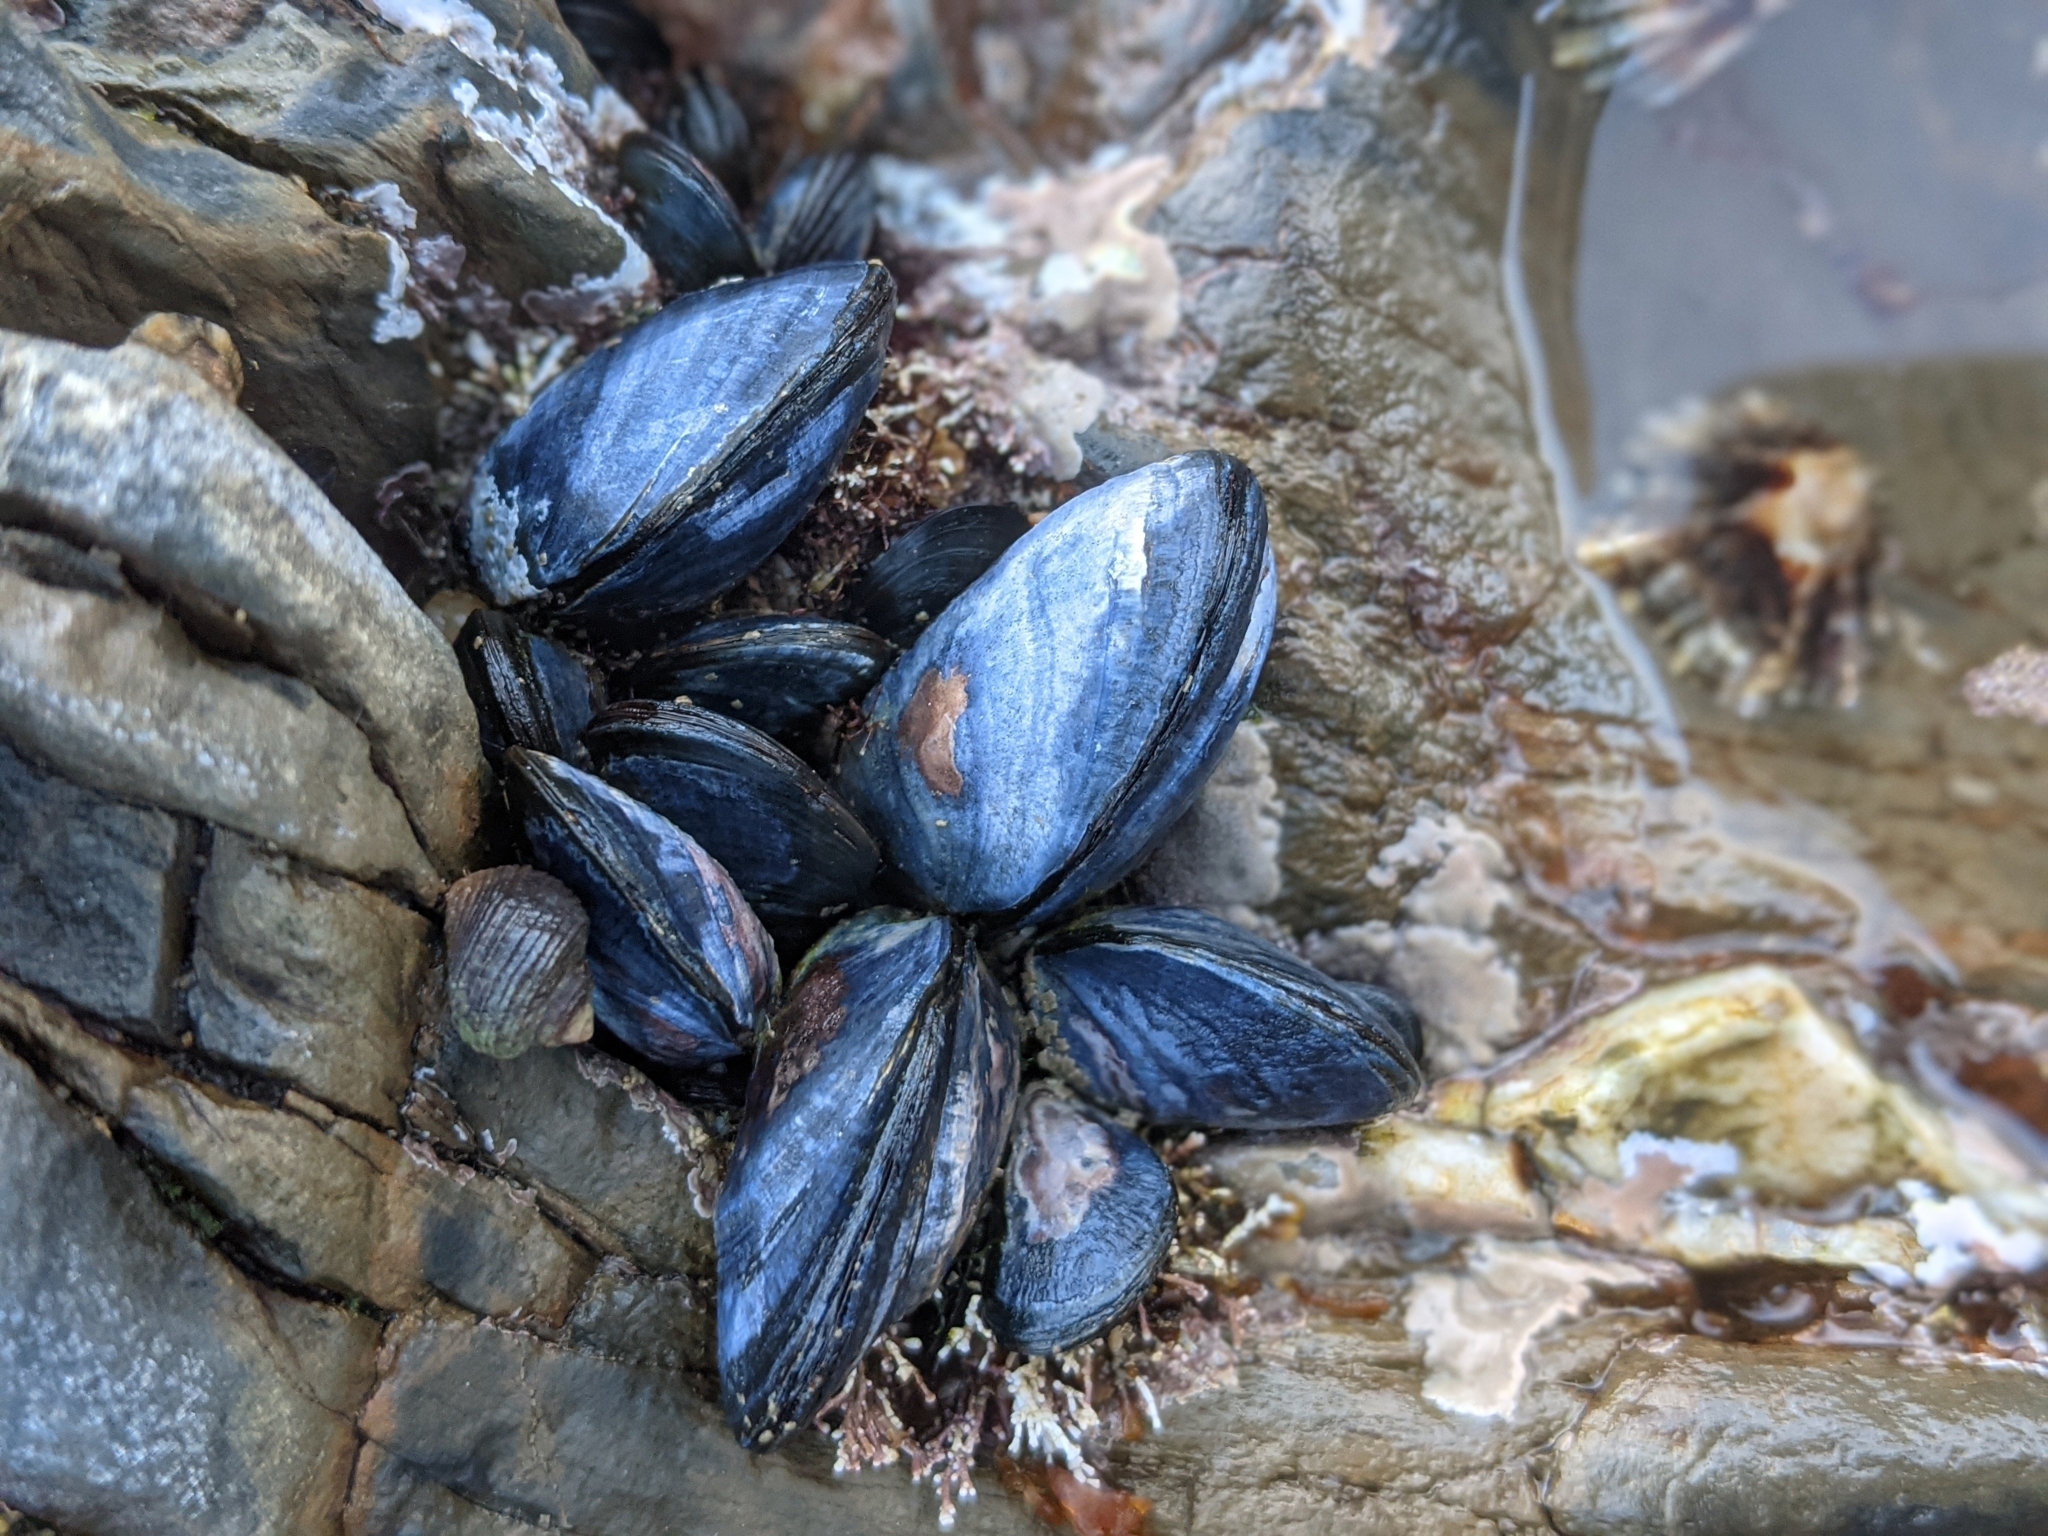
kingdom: Animalia
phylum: Mollusca
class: Bivalvia
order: Mytilida
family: Mytilidae
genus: Mytilus
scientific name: Mytilus edulis
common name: Blue mussel
